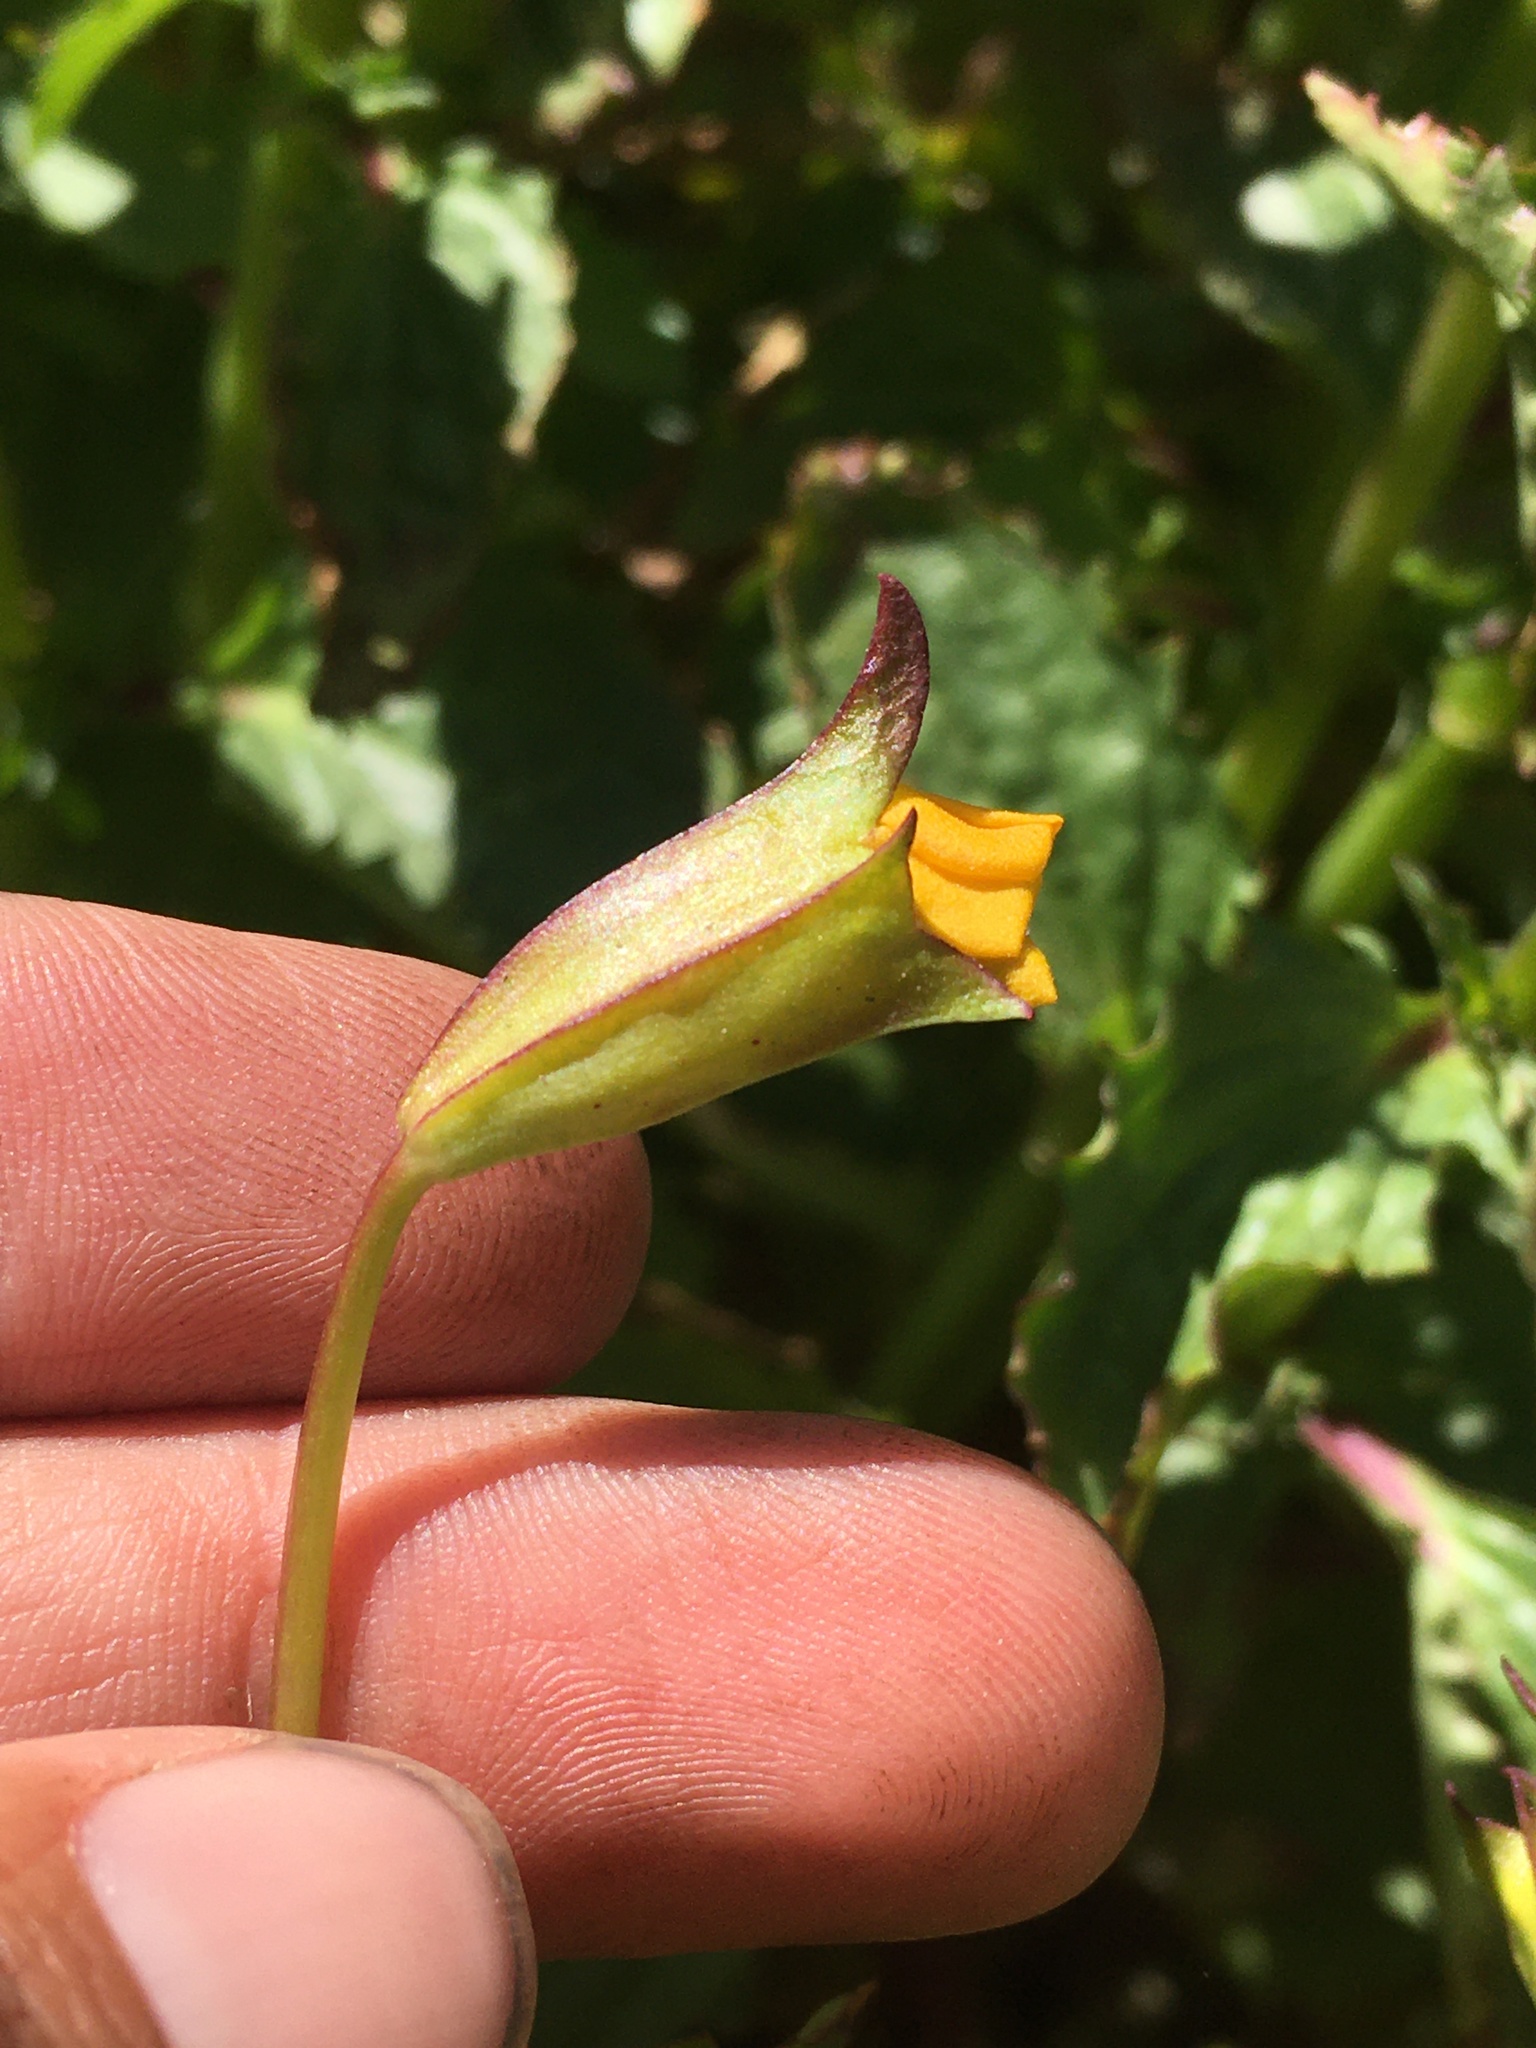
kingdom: Plantae
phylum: Tracheophyta
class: Magnoliopsida
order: Lamiales
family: Phrymaceae
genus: Erythranthe
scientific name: Erythranthe lutea
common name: Yellow monkey-flower
